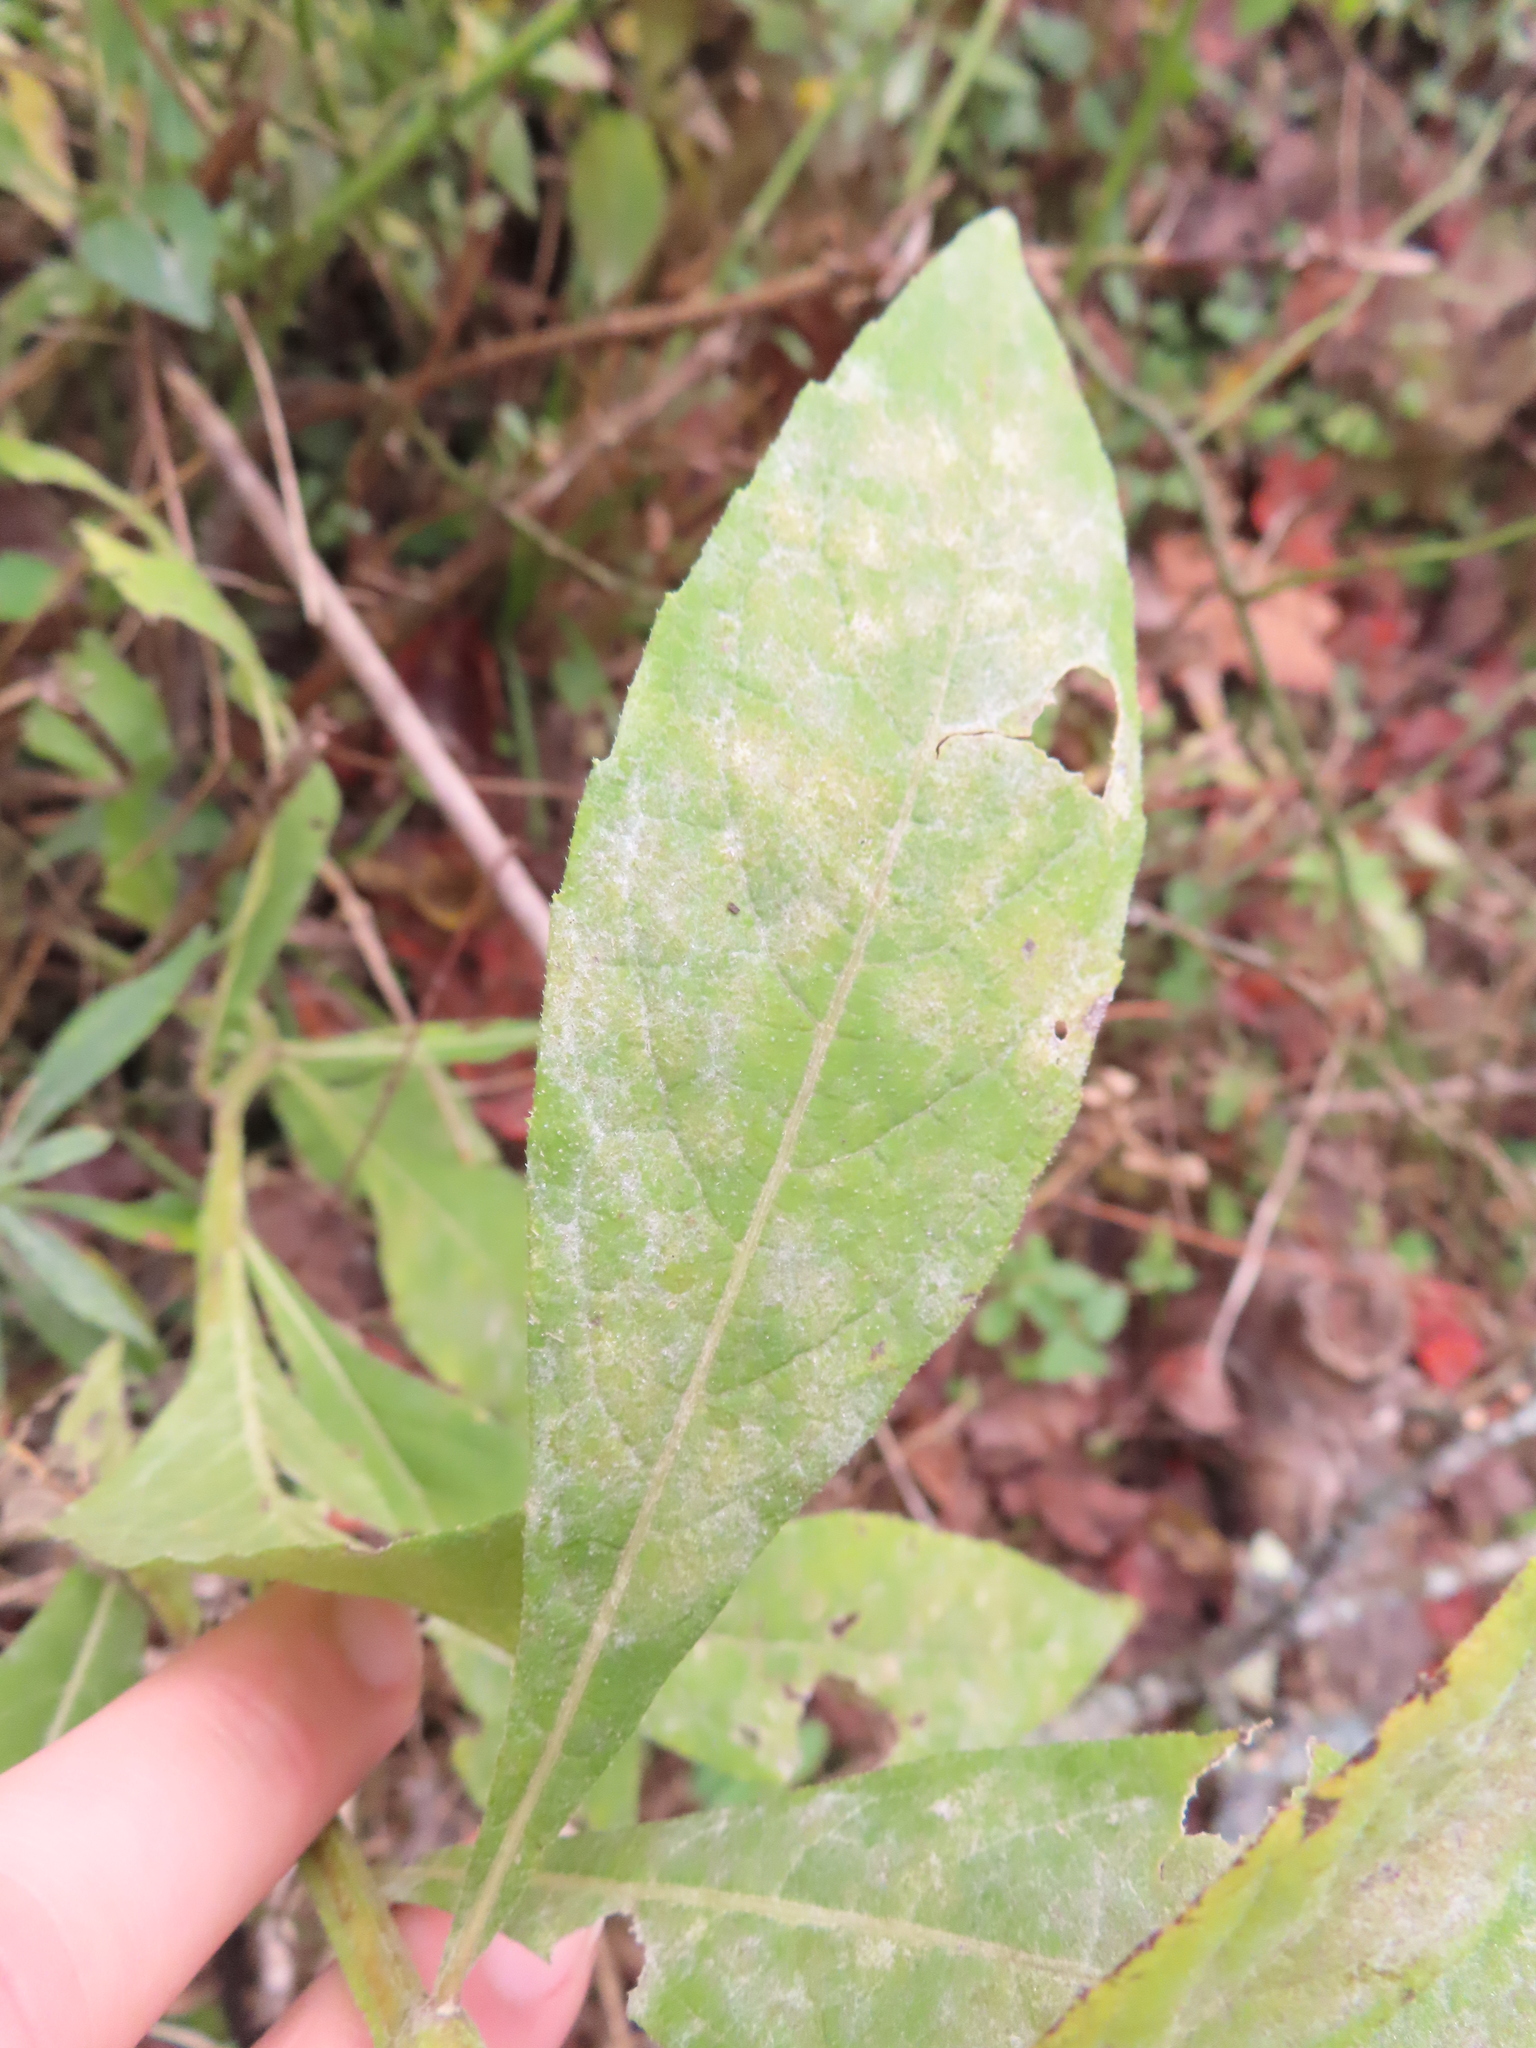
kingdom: Animalia
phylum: Arthropoda
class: Insecta
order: Diptera
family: Cecidomyiidae
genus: Neolasioptera
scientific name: Neolasioptera verbesinae
